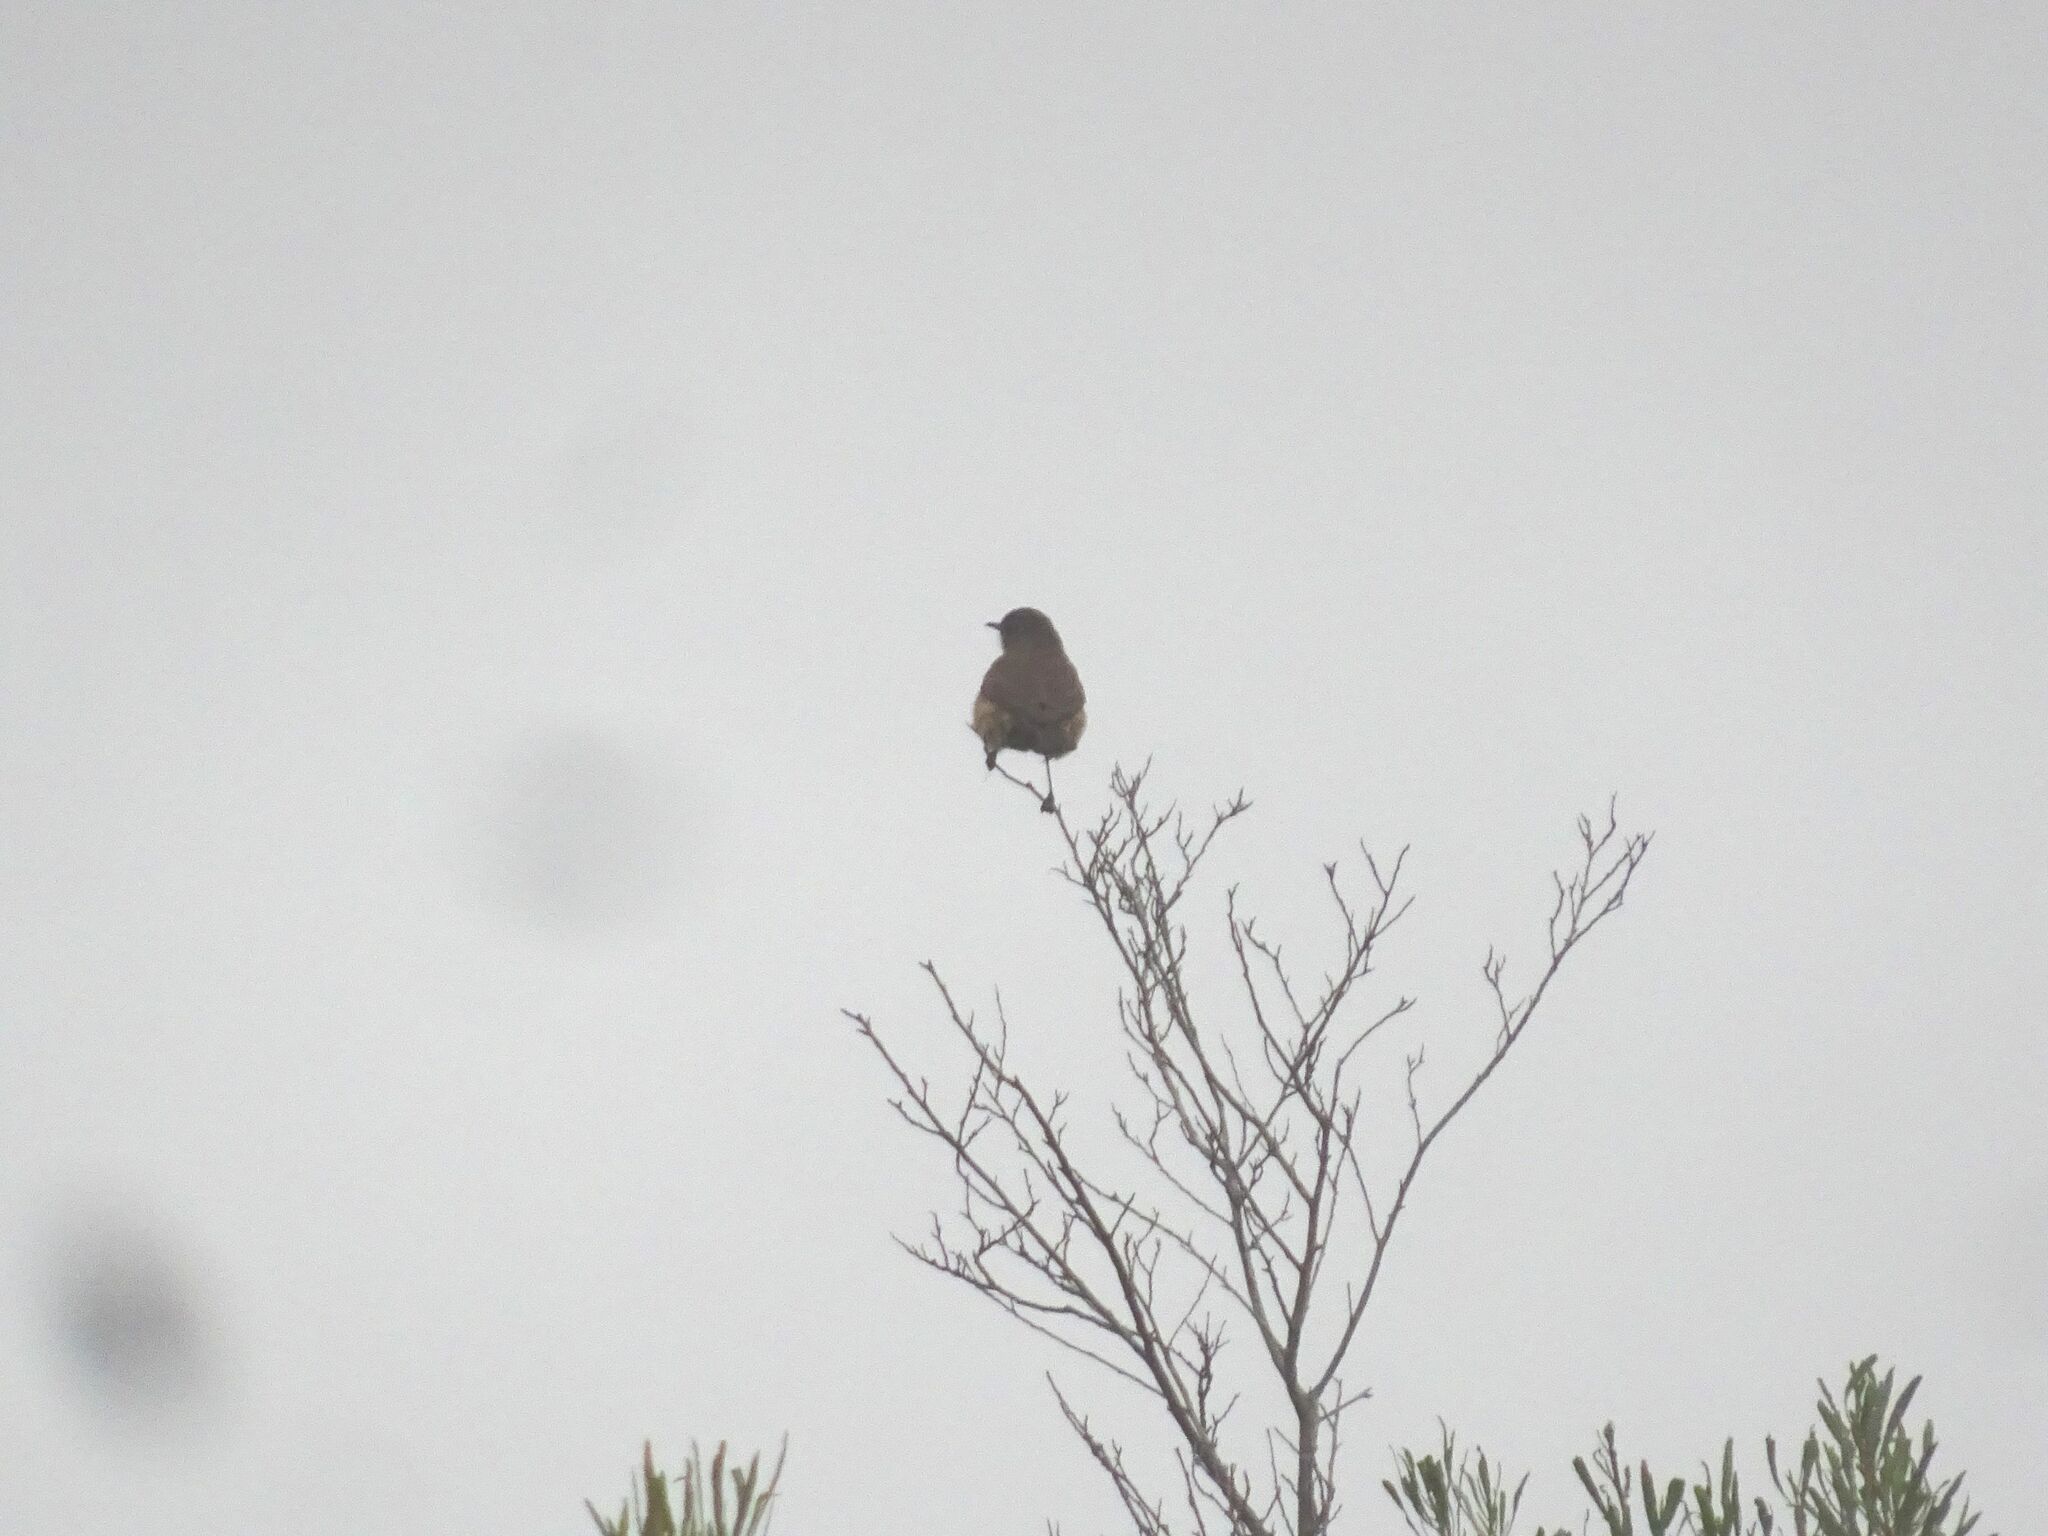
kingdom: Animalia
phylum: Chordata
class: Aves
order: Passeriformes
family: Muscicapidae
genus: Erythropygia
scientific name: Erythropygia coryphoeus
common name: Karoo scrub robin
